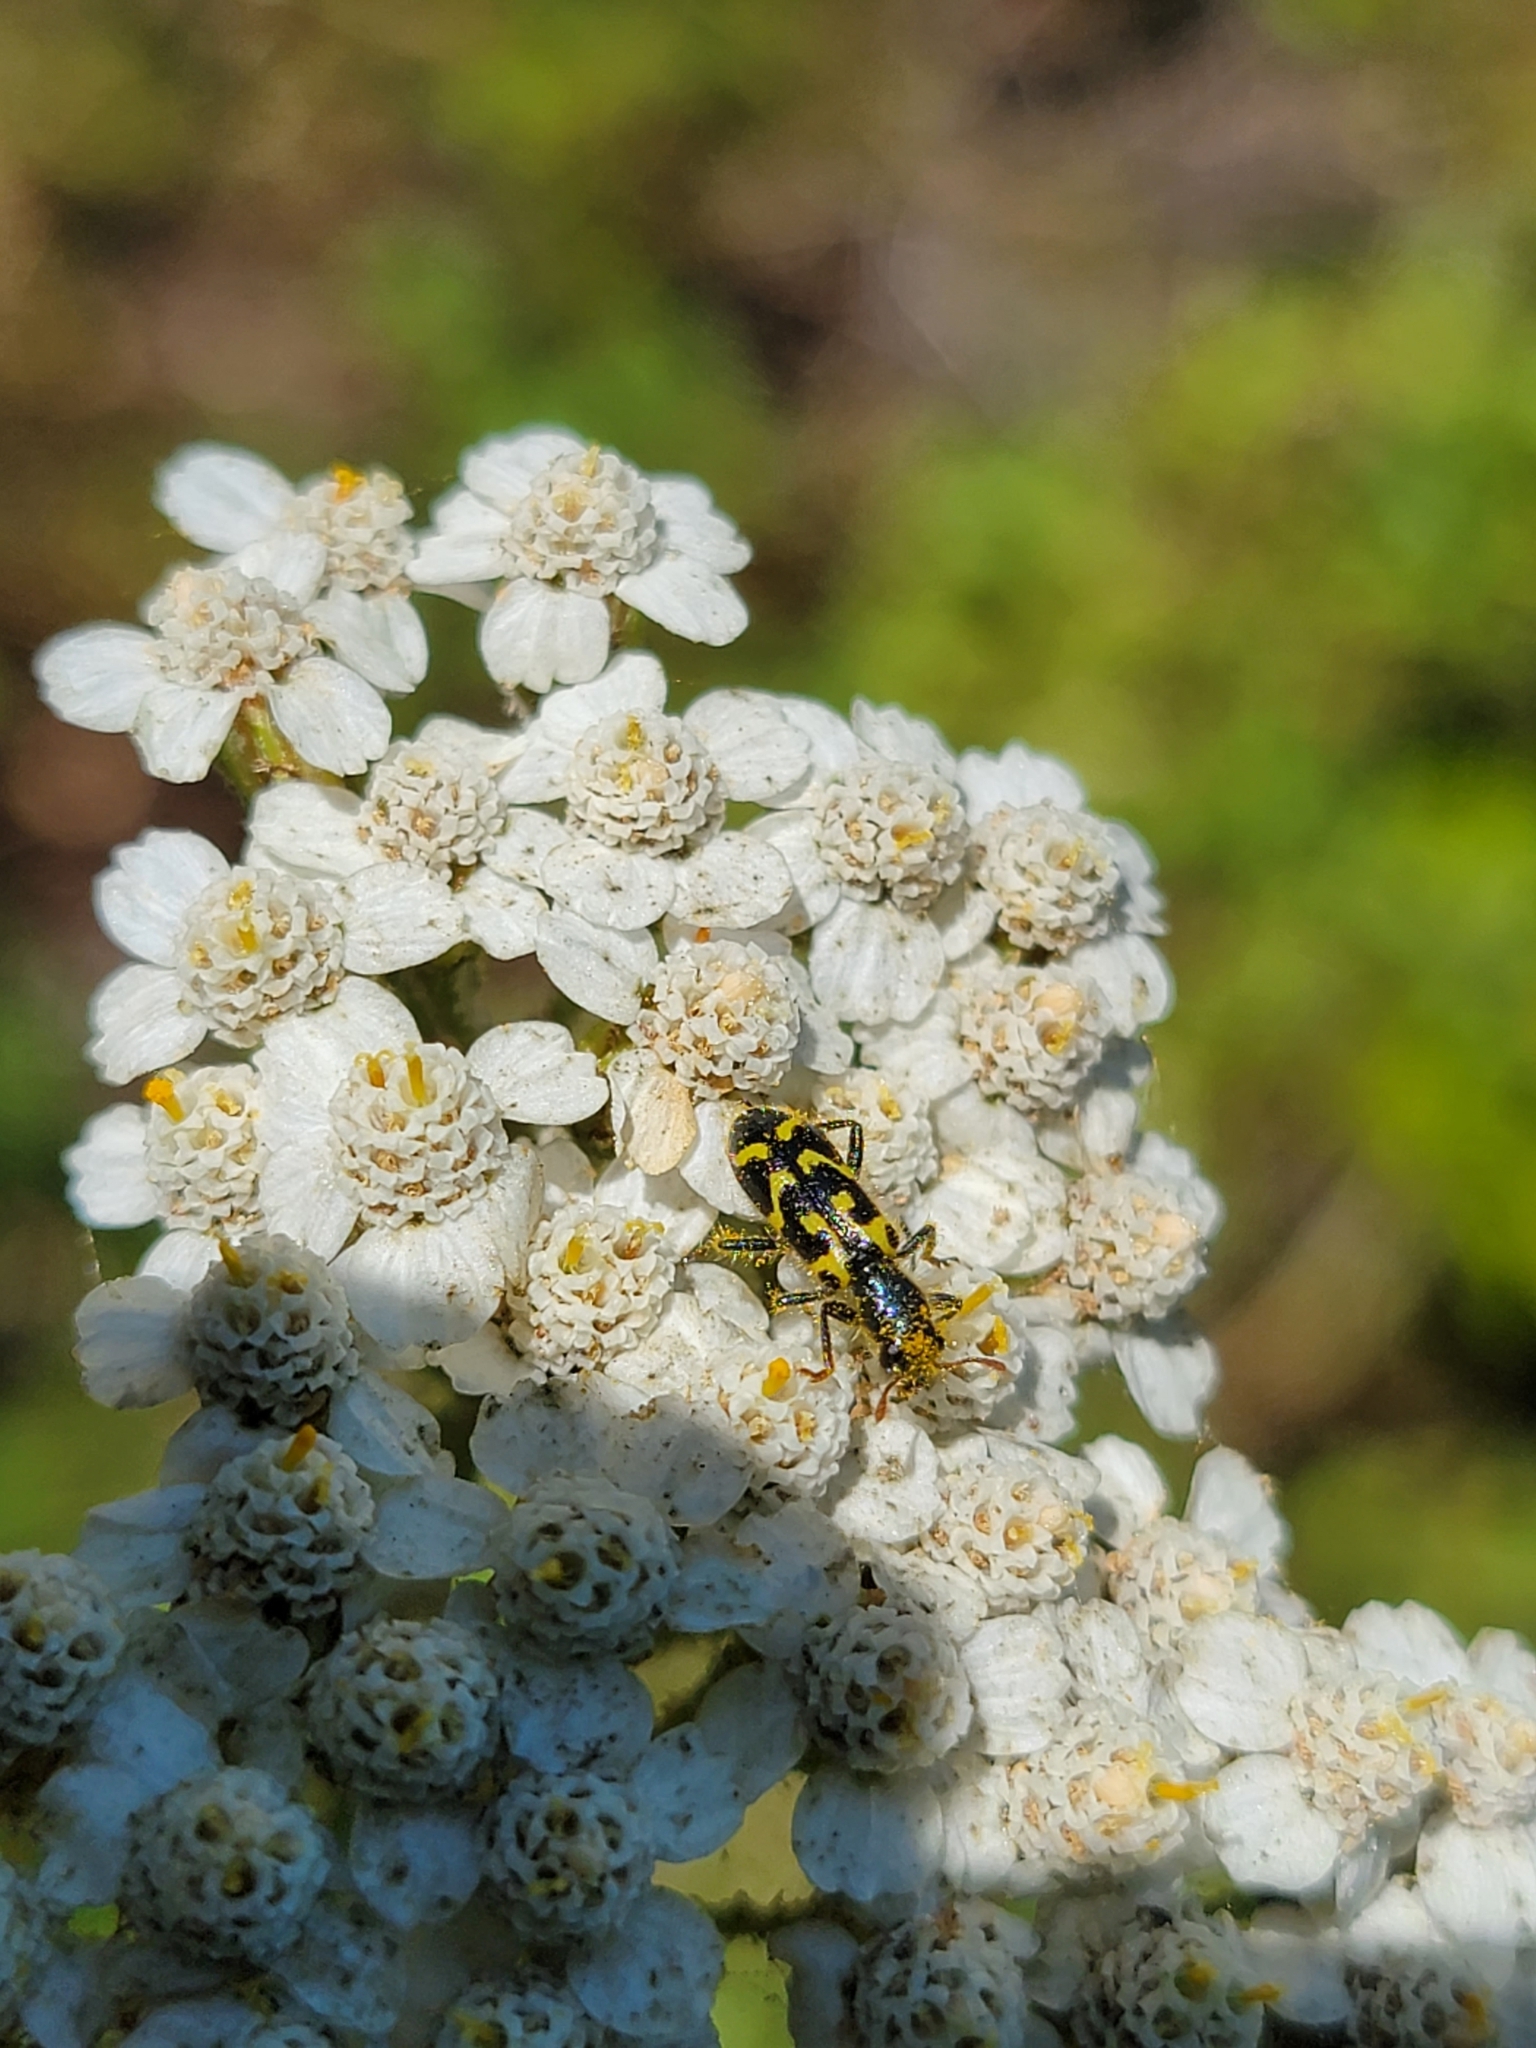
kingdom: Animalia
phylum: Arthropoda
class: Insecta
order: Coleoptera
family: Cleridae
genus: Trichodes
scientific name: Trichodes ornatus
